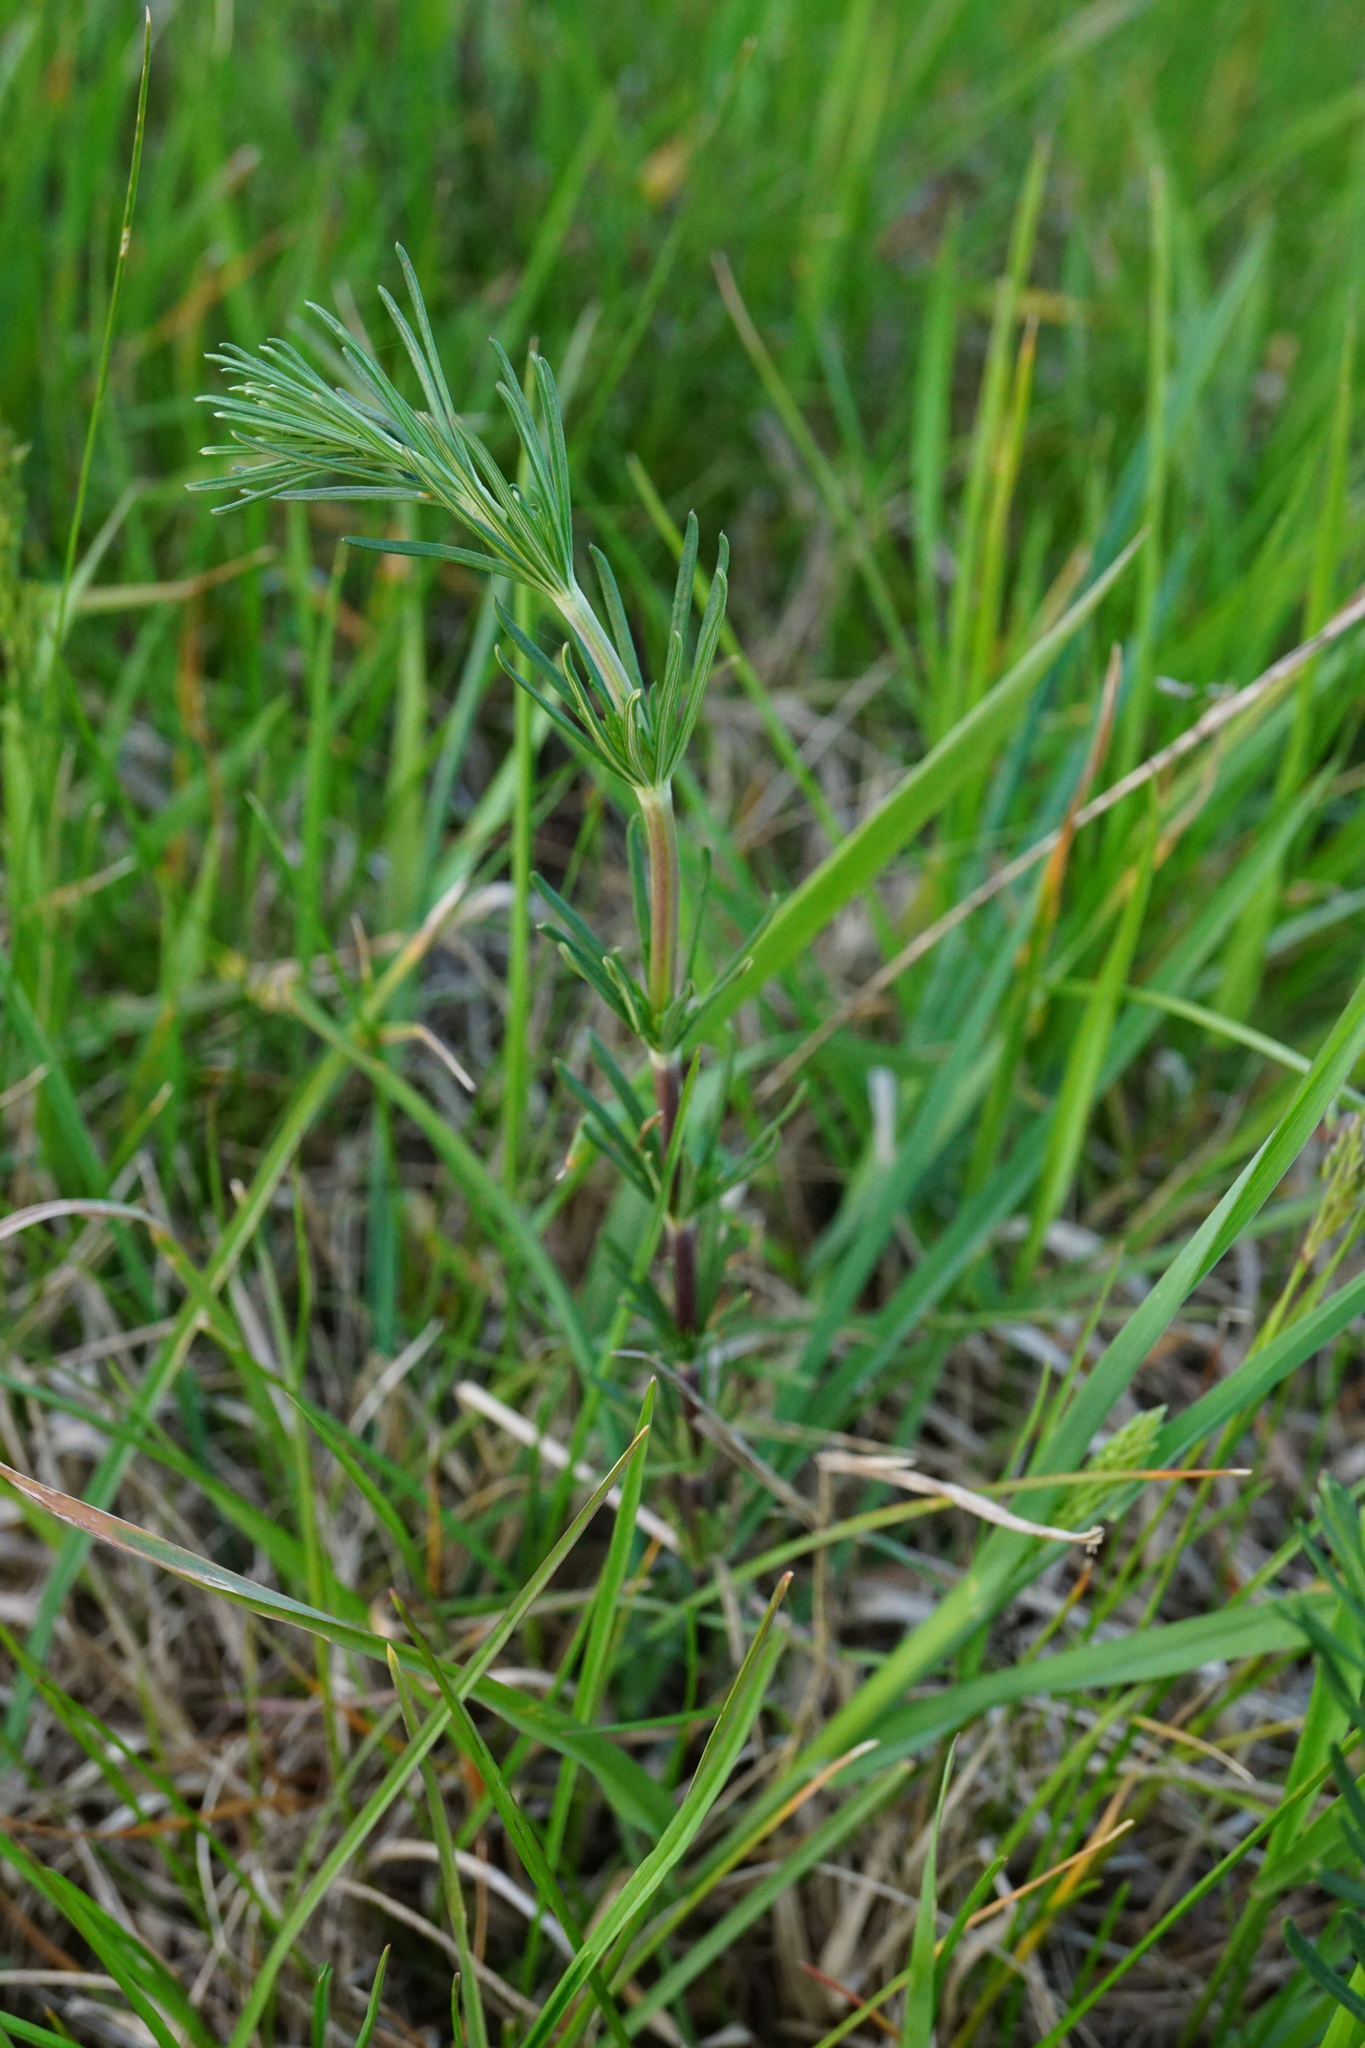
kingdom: Plantae
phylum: Tracheophyta
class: Magnoliopsida
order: Gentianales
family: Rubiaceae
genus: Galium
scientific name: Galium verum
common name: Lady's bedstraw
